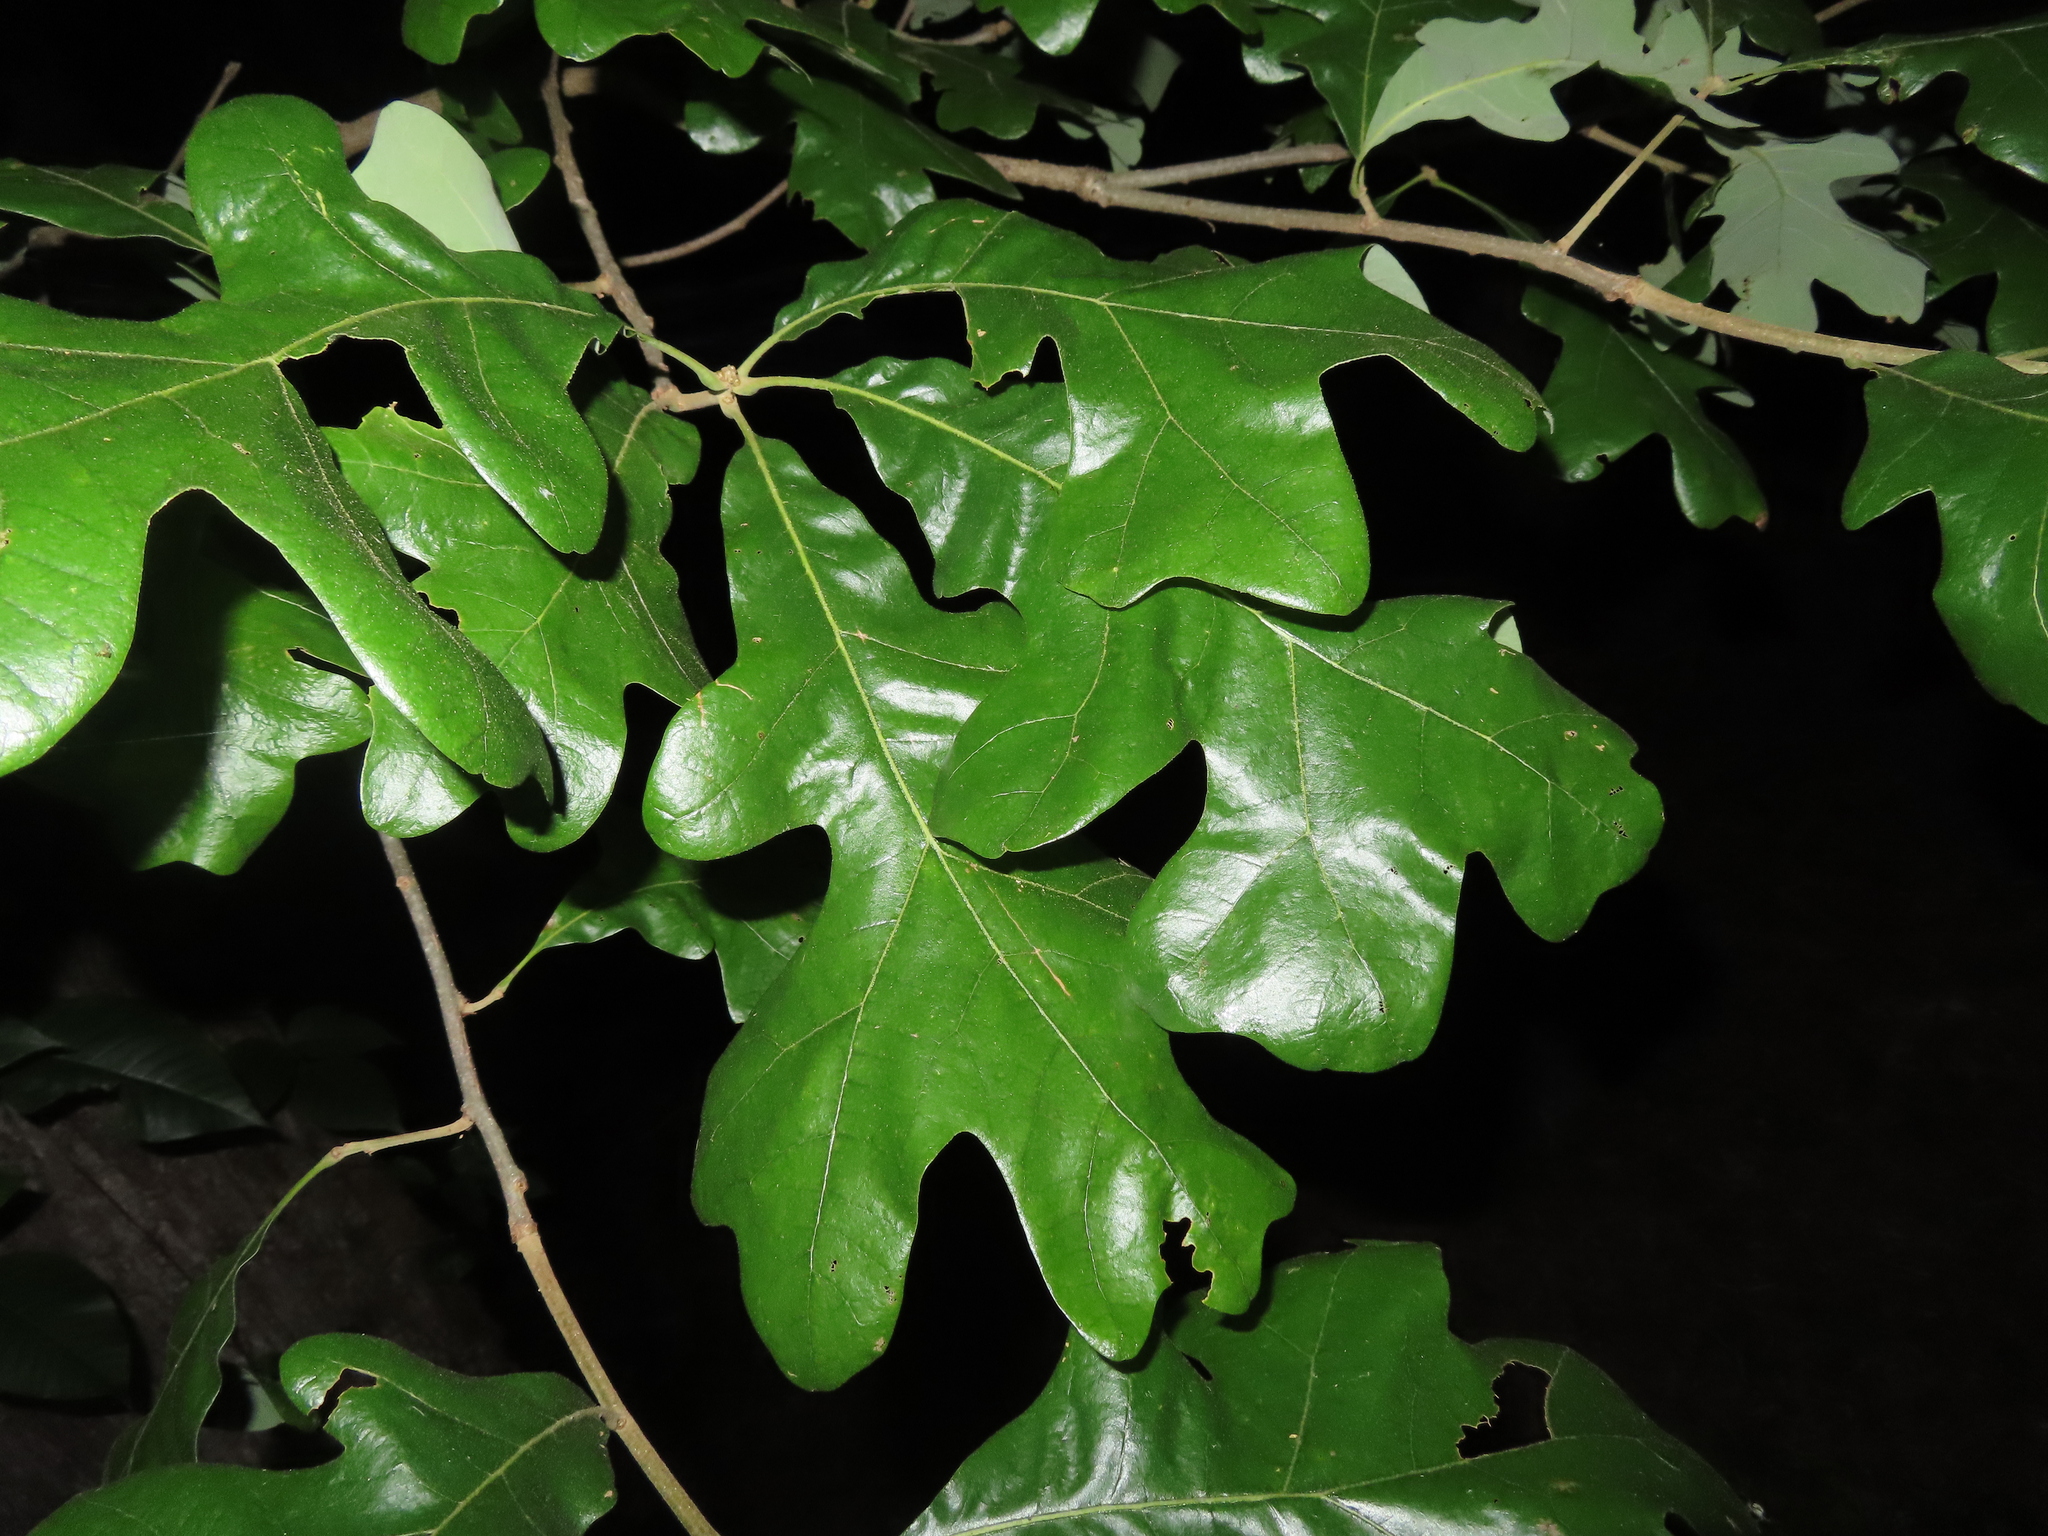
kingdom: Plantae
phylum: Tracheophyta
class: Magnoliopsida
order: Fagales
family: Fagaceae
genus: Quercus
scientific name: Quercus stellata
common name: Post oak
